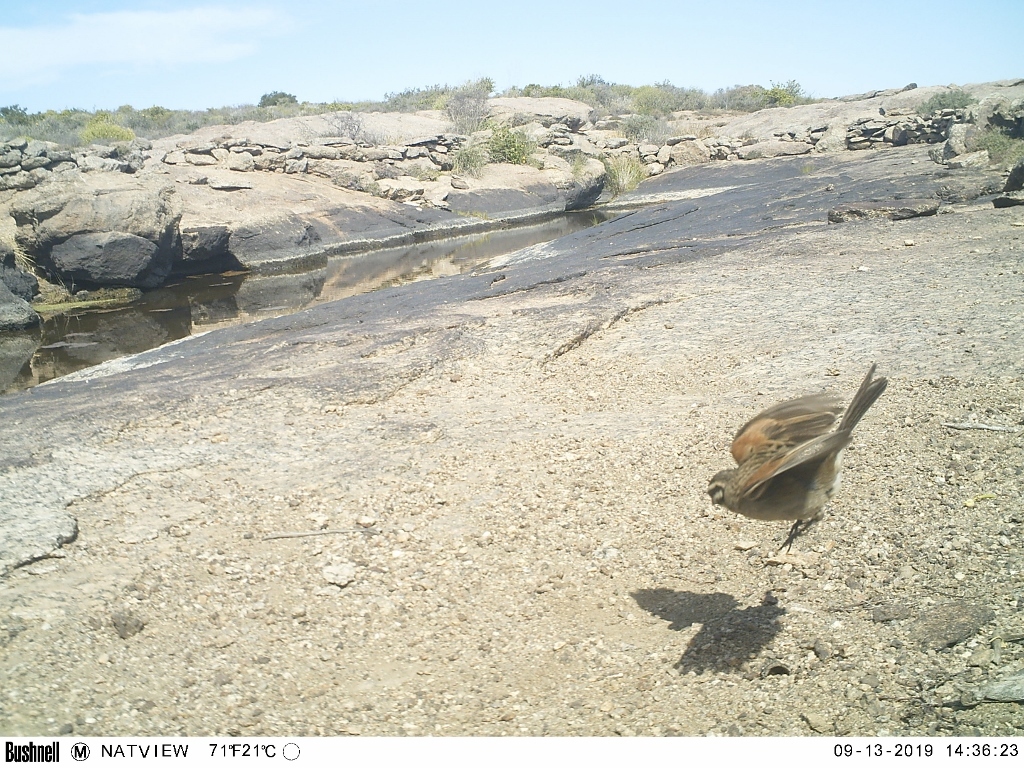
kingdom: Animalia
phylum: Chordata
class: Aves
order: Passeriformes
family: Emberizidae
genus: Emberiza
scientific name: Emberiza capensis
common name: Cape bunting
